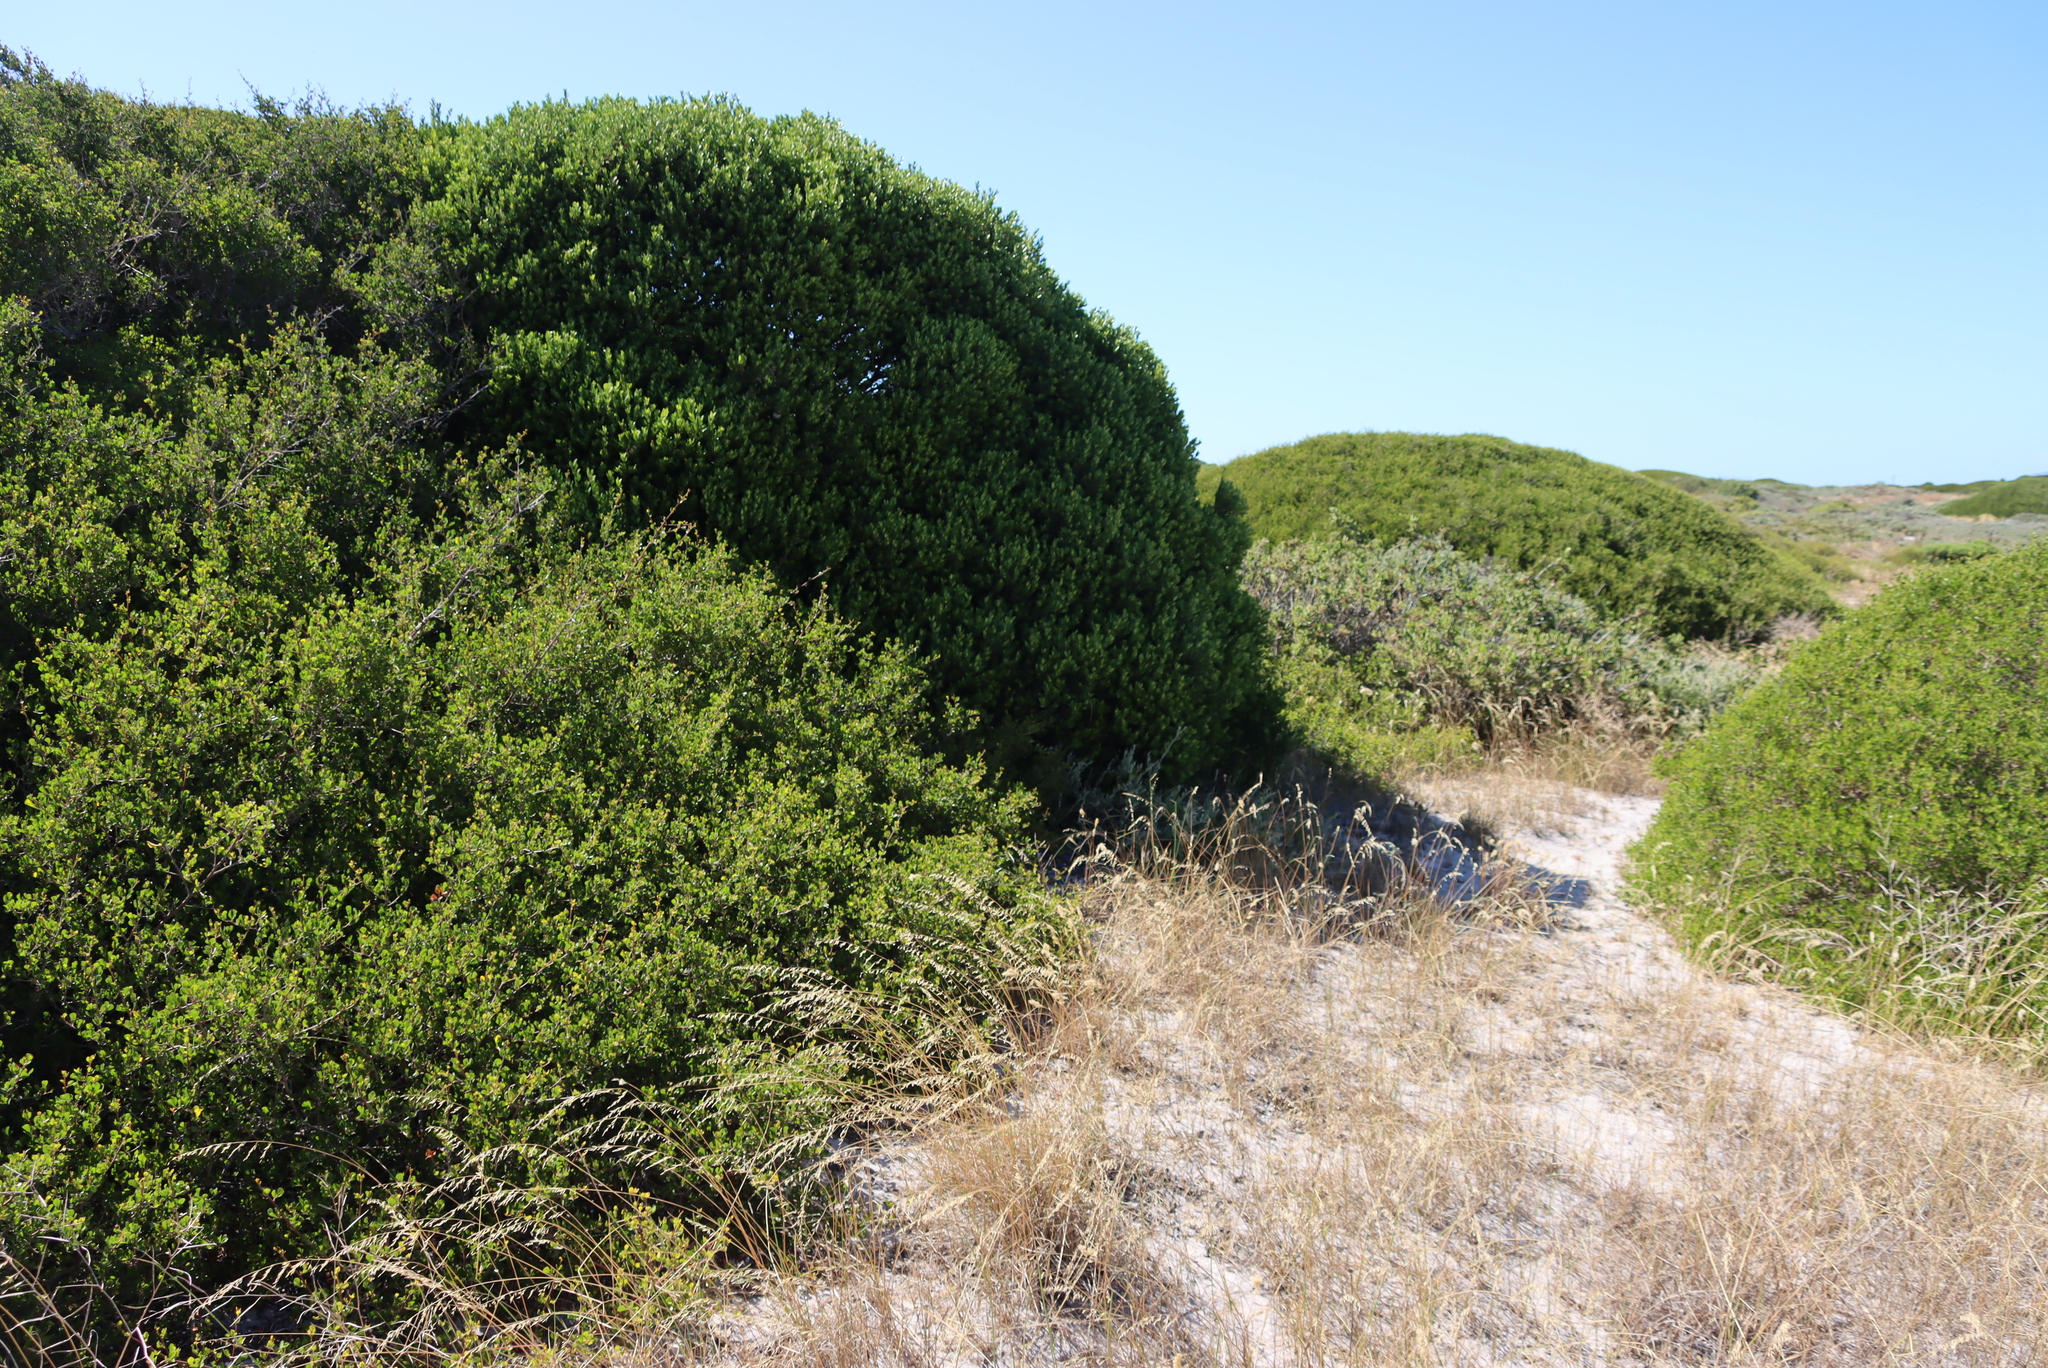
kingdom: Plantae
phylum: Tracheophyta
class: Magnoliopsida
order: Ericales
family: Ebenaceae
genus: Euclea
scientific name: Euclea racemosa
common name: Dune guarri
